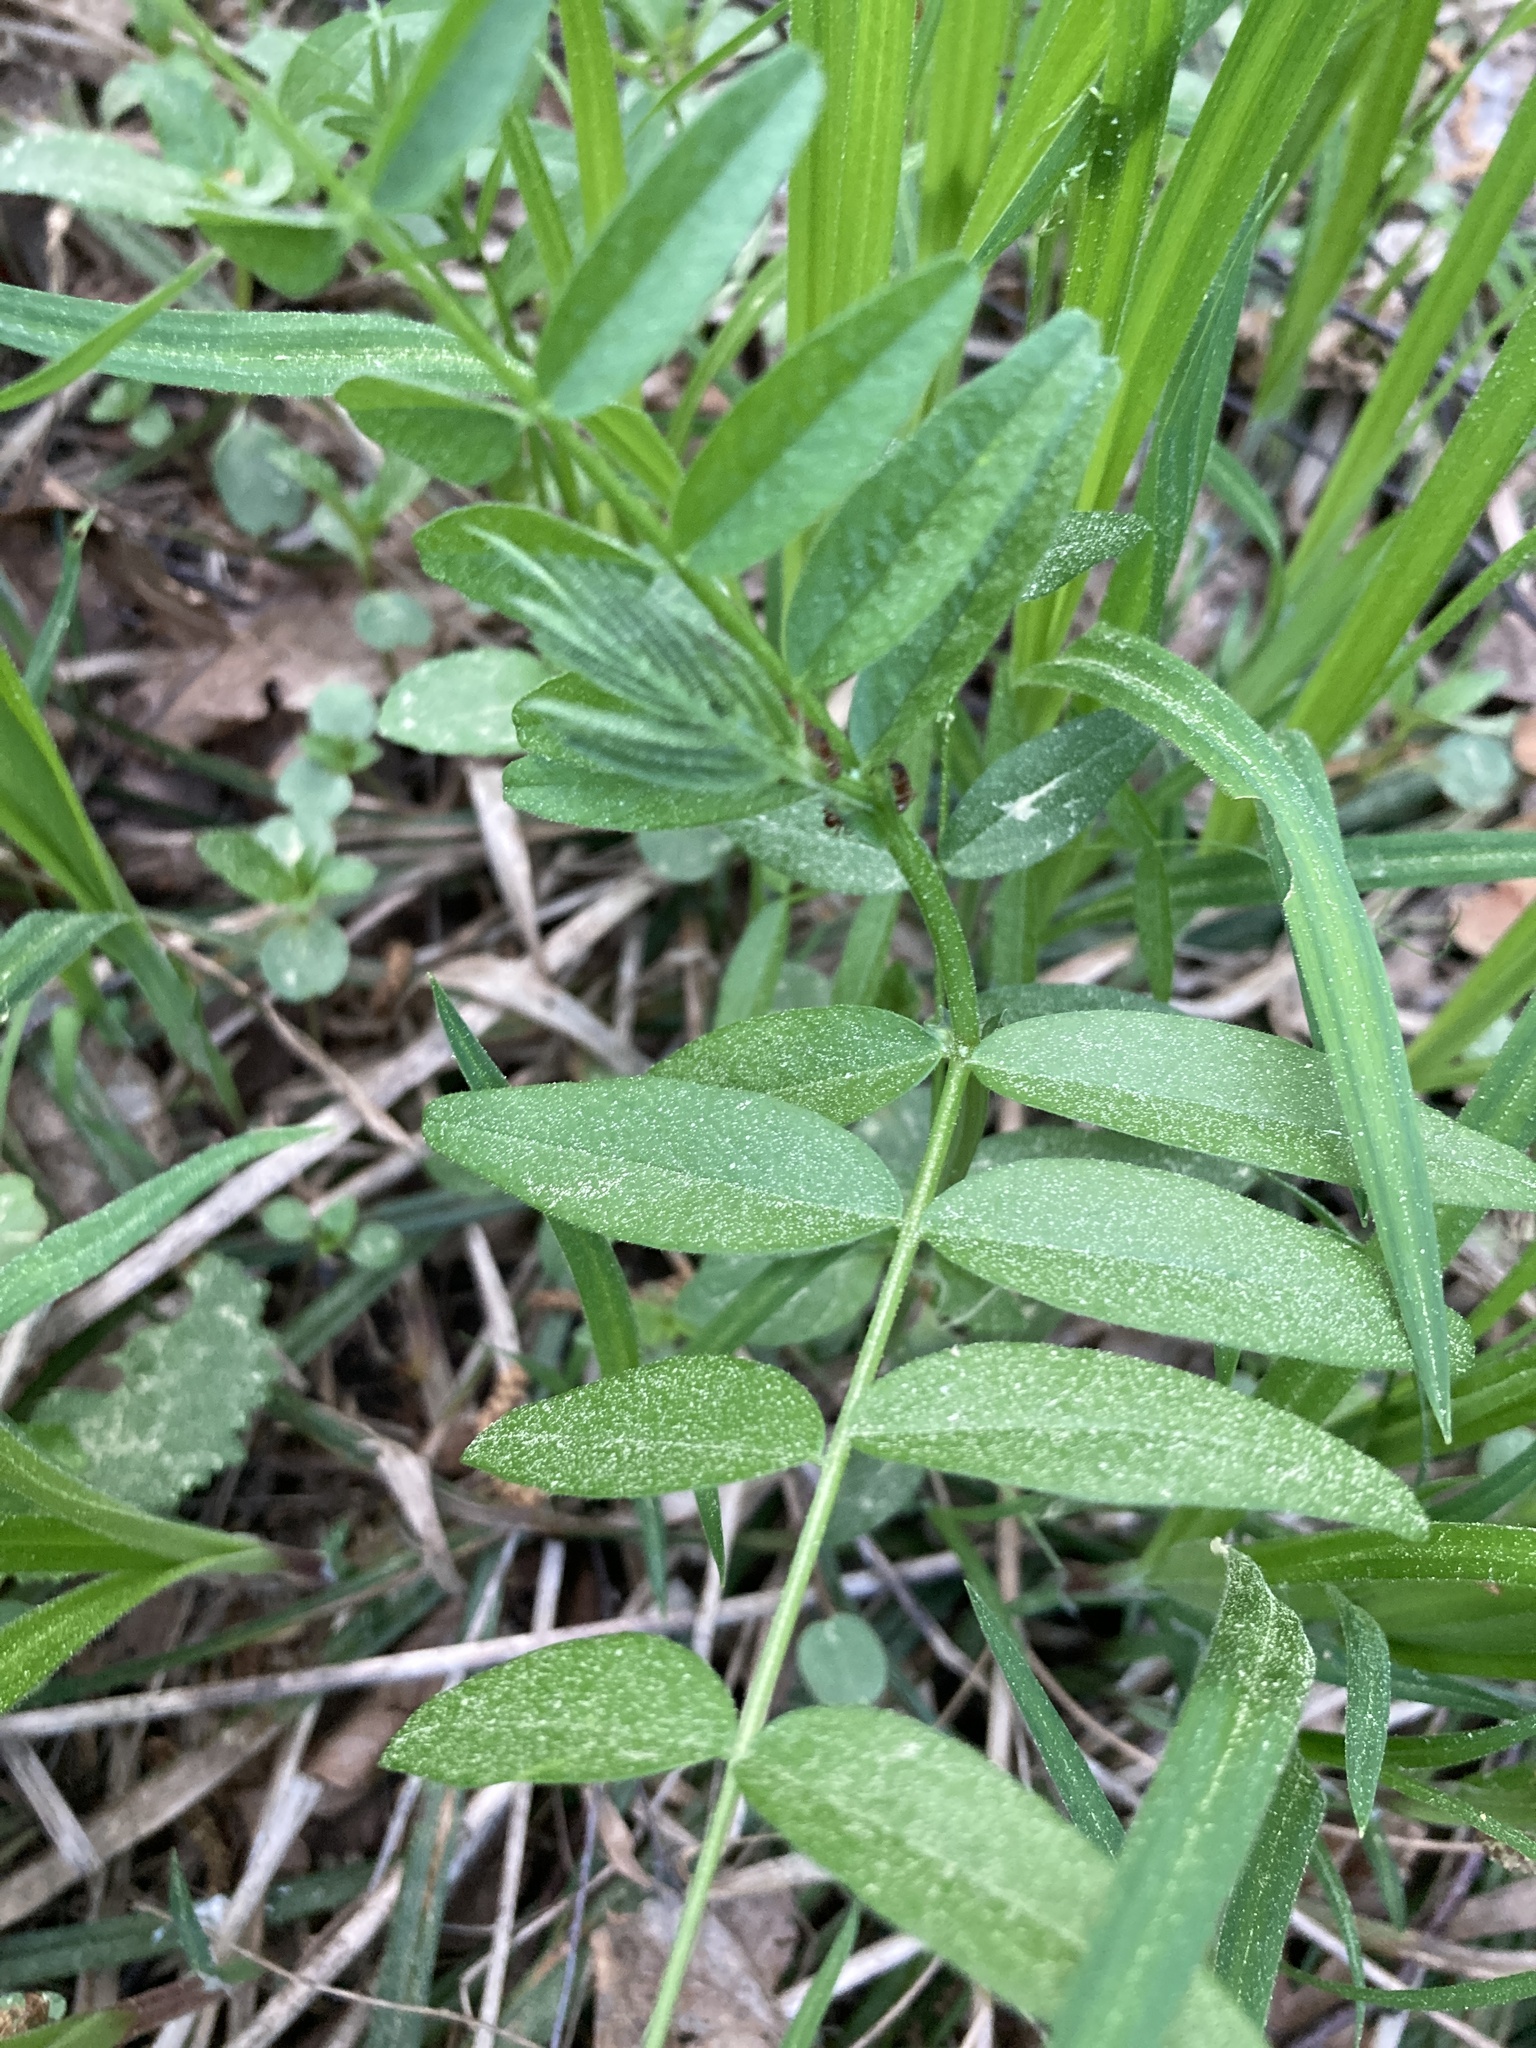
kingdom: Plantae
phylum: Tracheophyta
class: Magnoliopsida
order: Fabales
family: Fabaceae
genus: Vicia
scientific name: Vicia sepium
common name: Bush vetch
